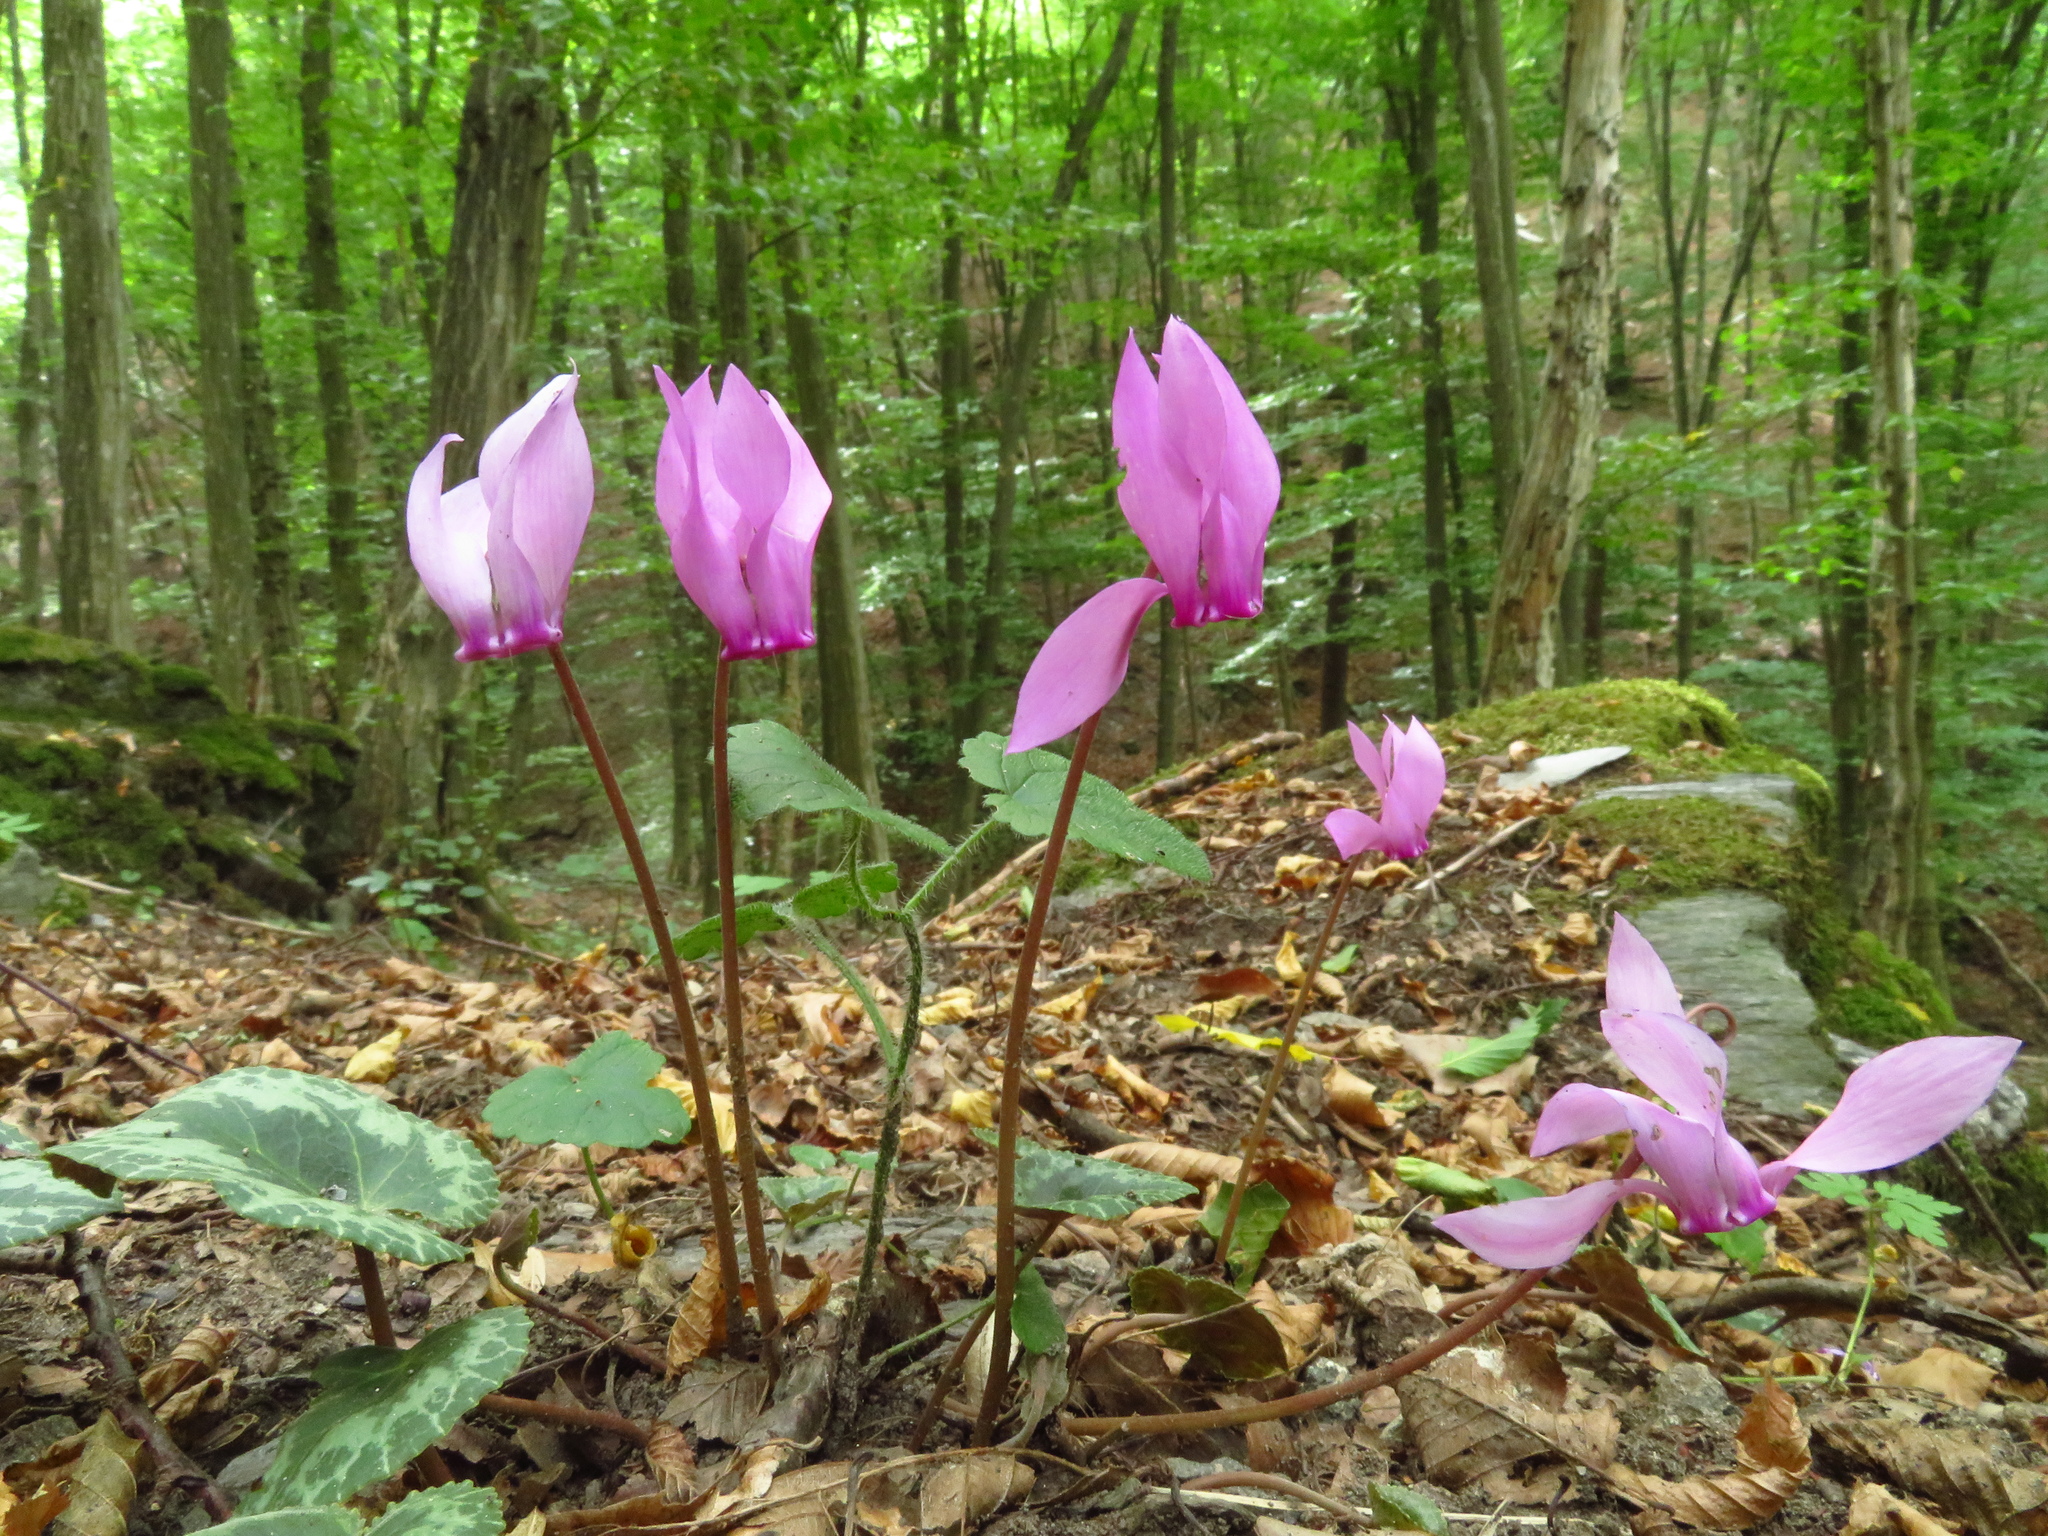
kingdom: Plantae
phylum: Tracheophyta
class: Magnoliopsida
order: Ericales
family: Primulaceae
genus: Cyclamen
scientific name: Cyclamen purpurascens
